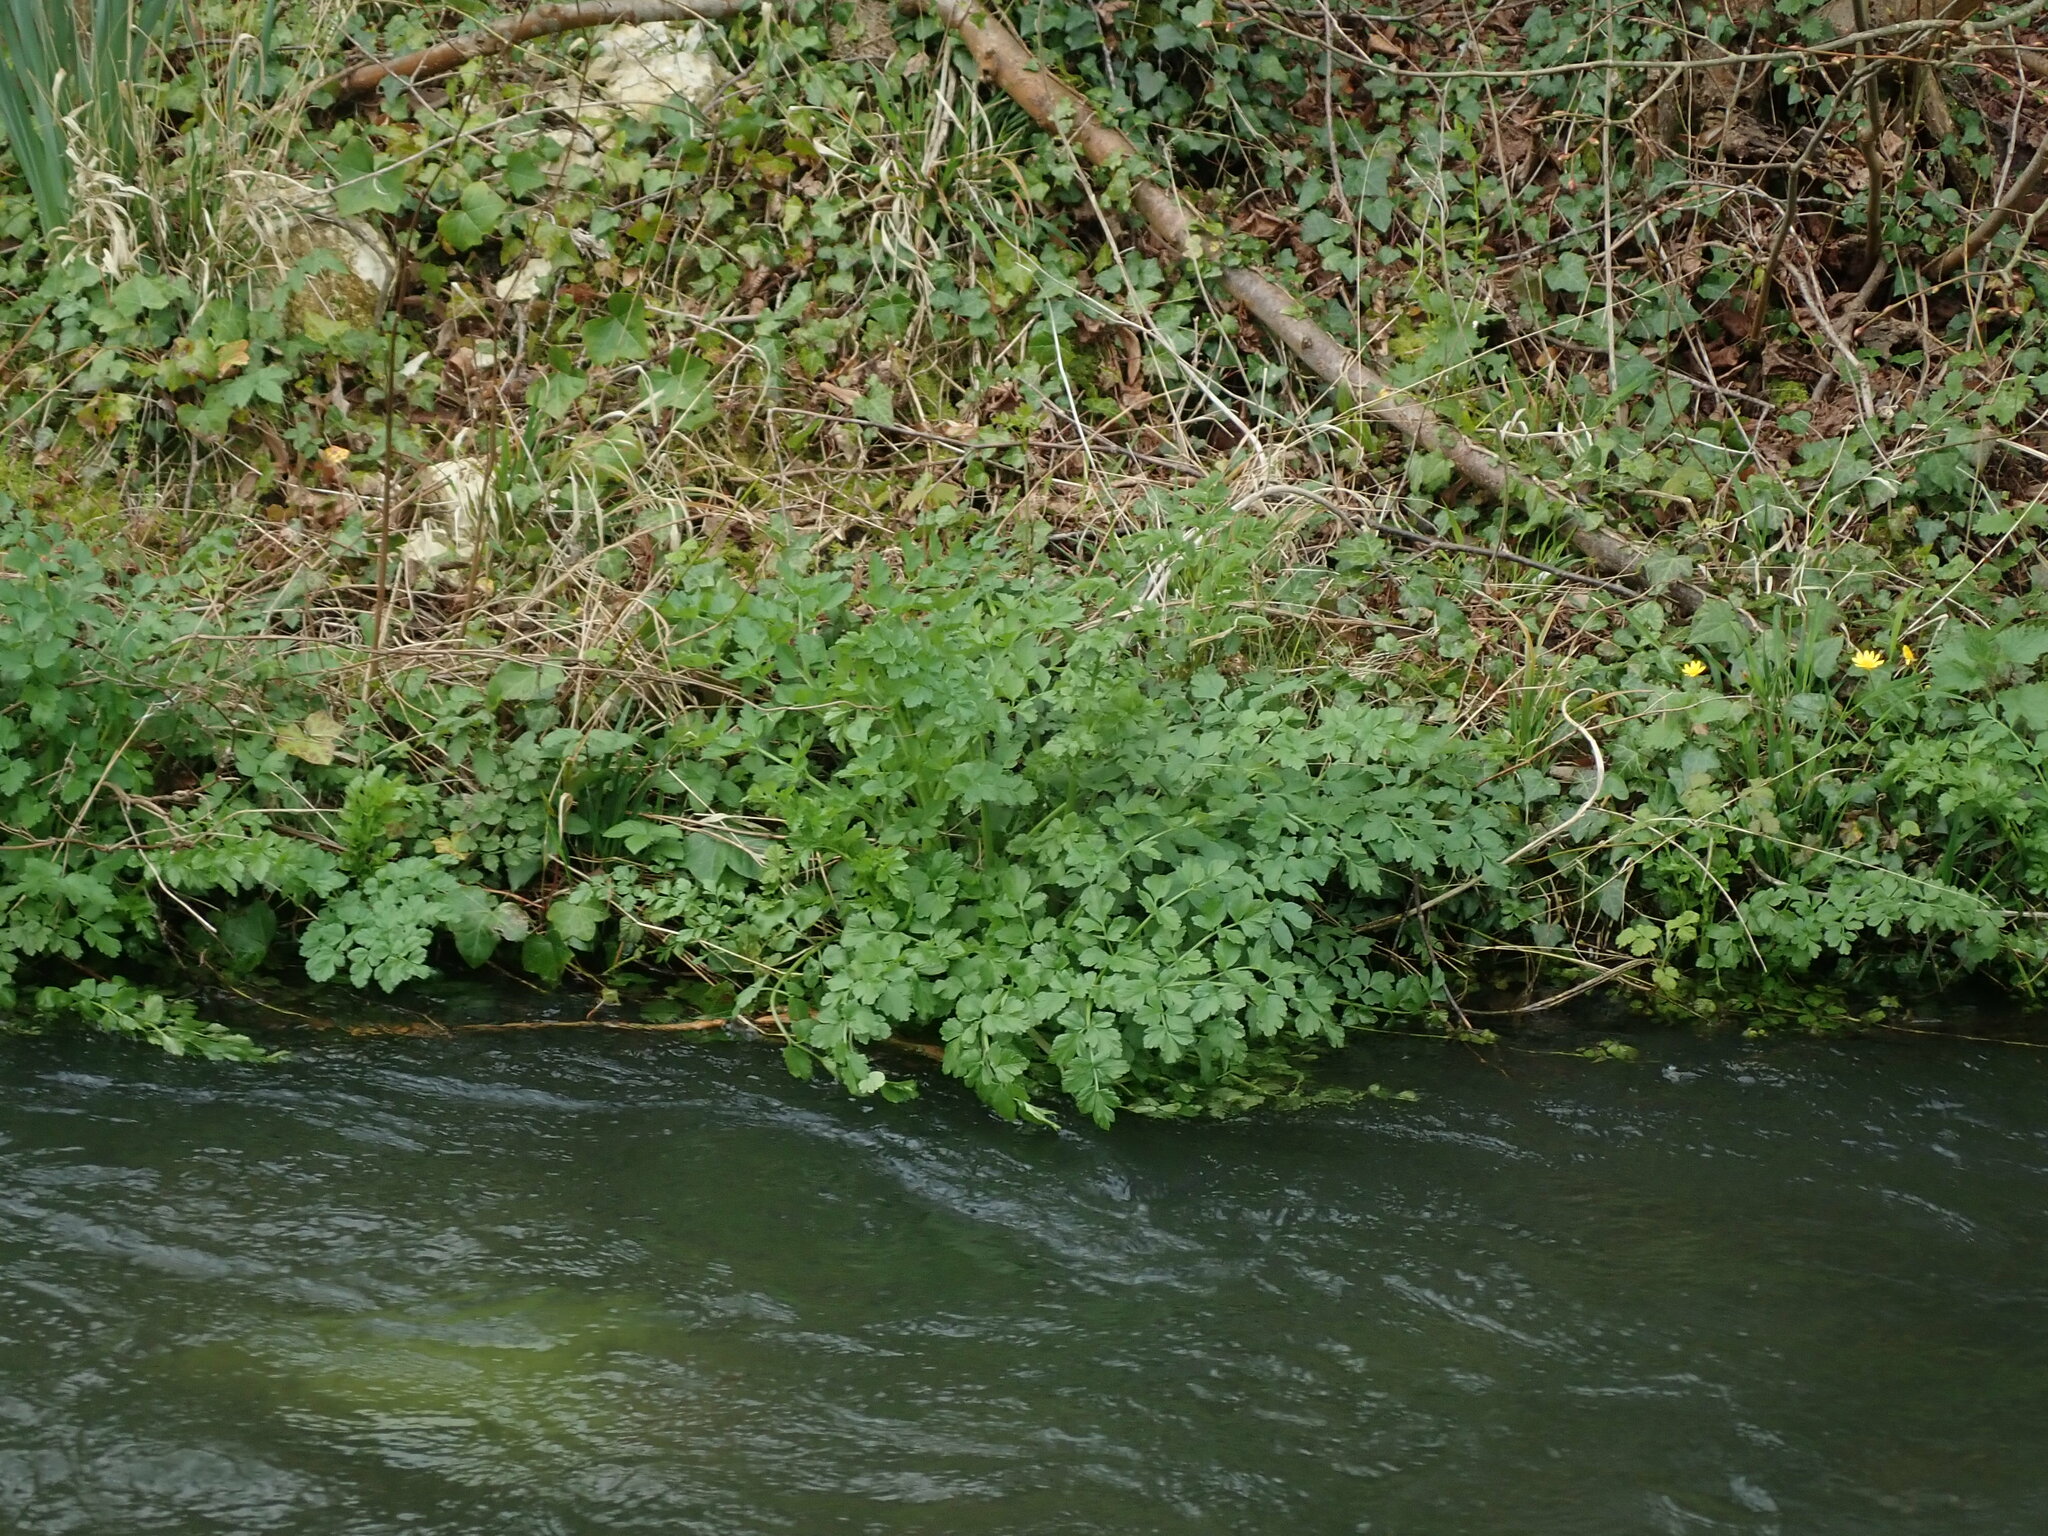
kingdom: Plantae
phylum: Tracheophyta
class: Magnoliopsida
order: Apiales
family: Apiaceae
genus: Oenanthe
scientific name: Oenanthe crocata
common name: Hemlock water-dropwort
